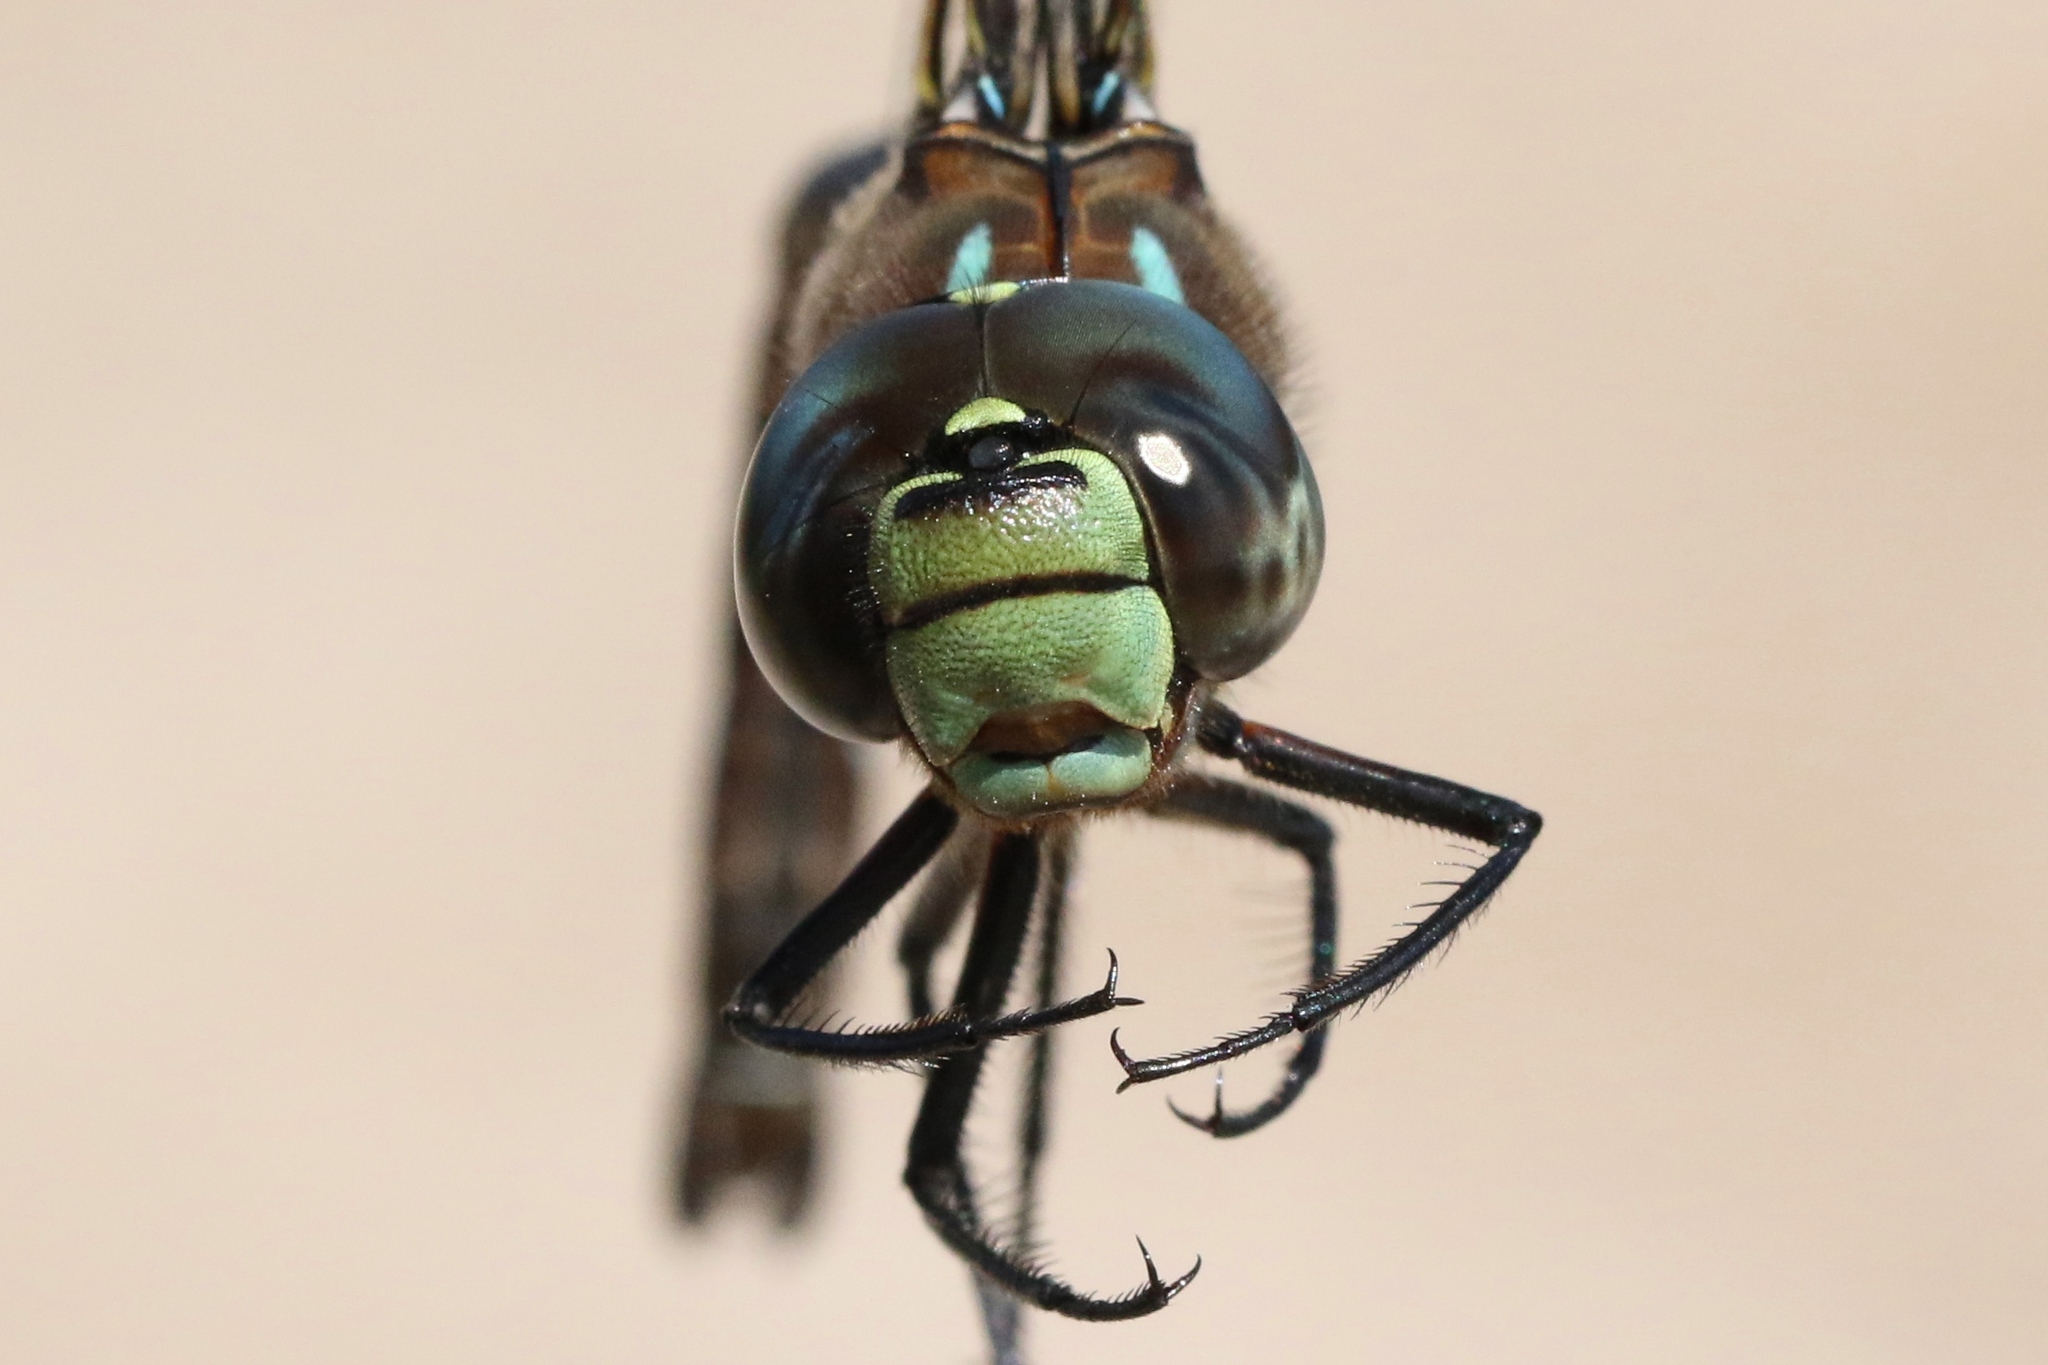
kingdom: Animalia
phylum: Arthropoda
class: Insecta
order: Odonata
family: Aeshnidae
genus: Aeshna
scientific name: Aeshna interrupta
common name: Variable darner
